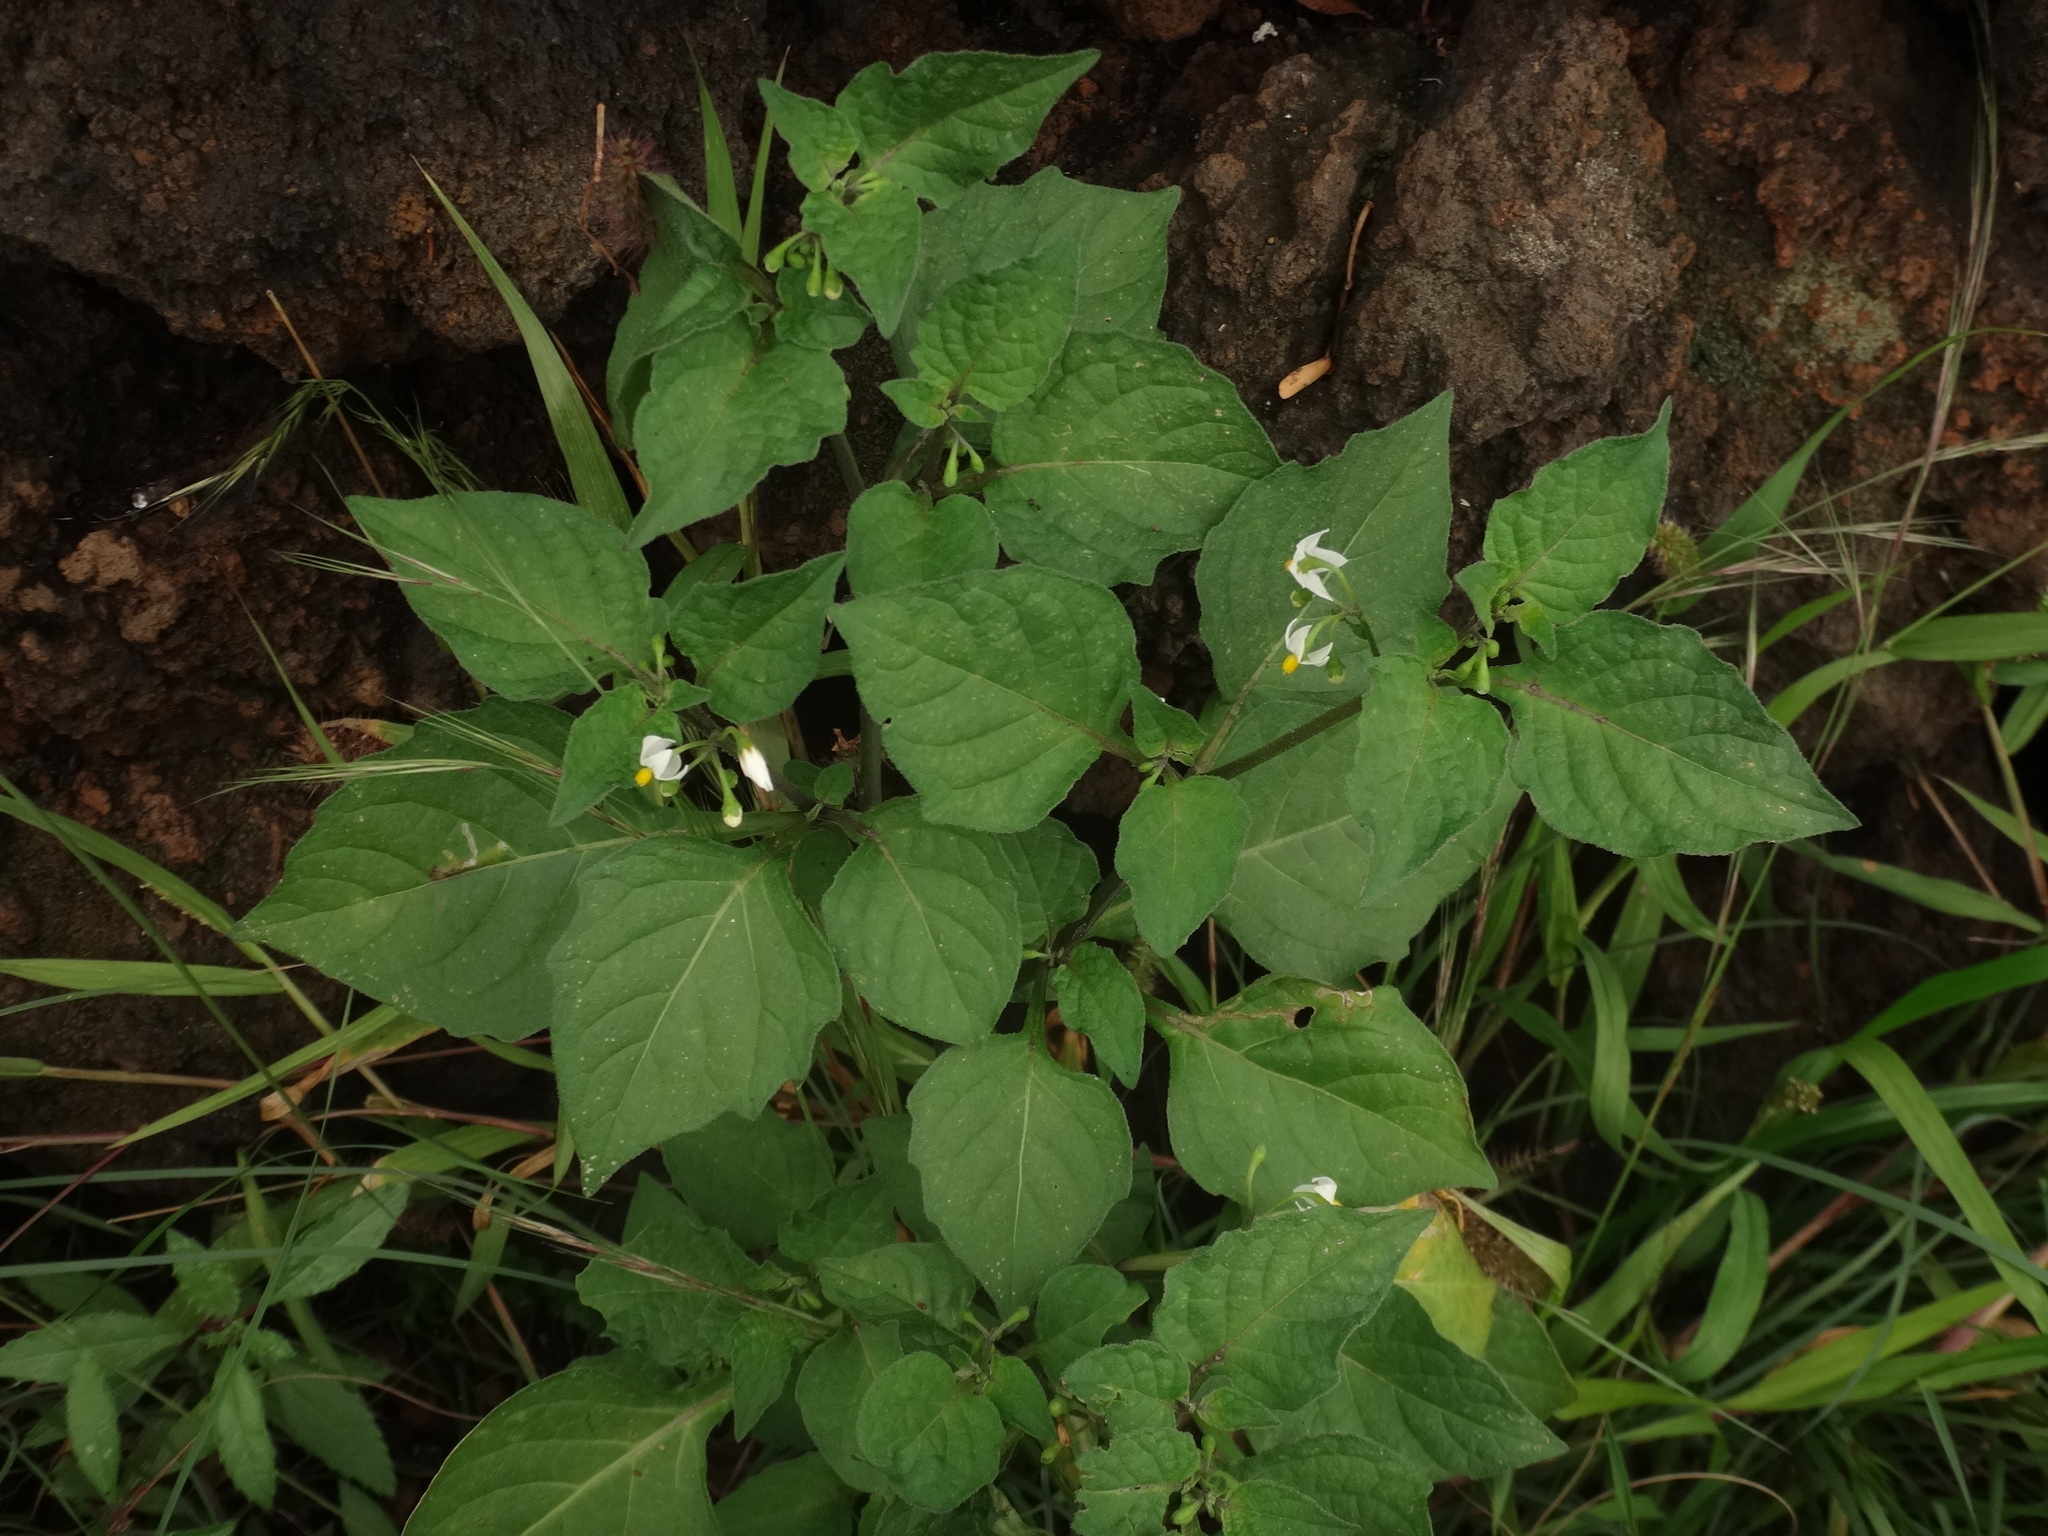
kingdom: Plantae
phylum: Tracheophyta
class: Magnoliopsida
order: Solanales
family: Solanaceae
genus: Solanum
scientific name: Solanum nigrum
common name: Black nightshade
